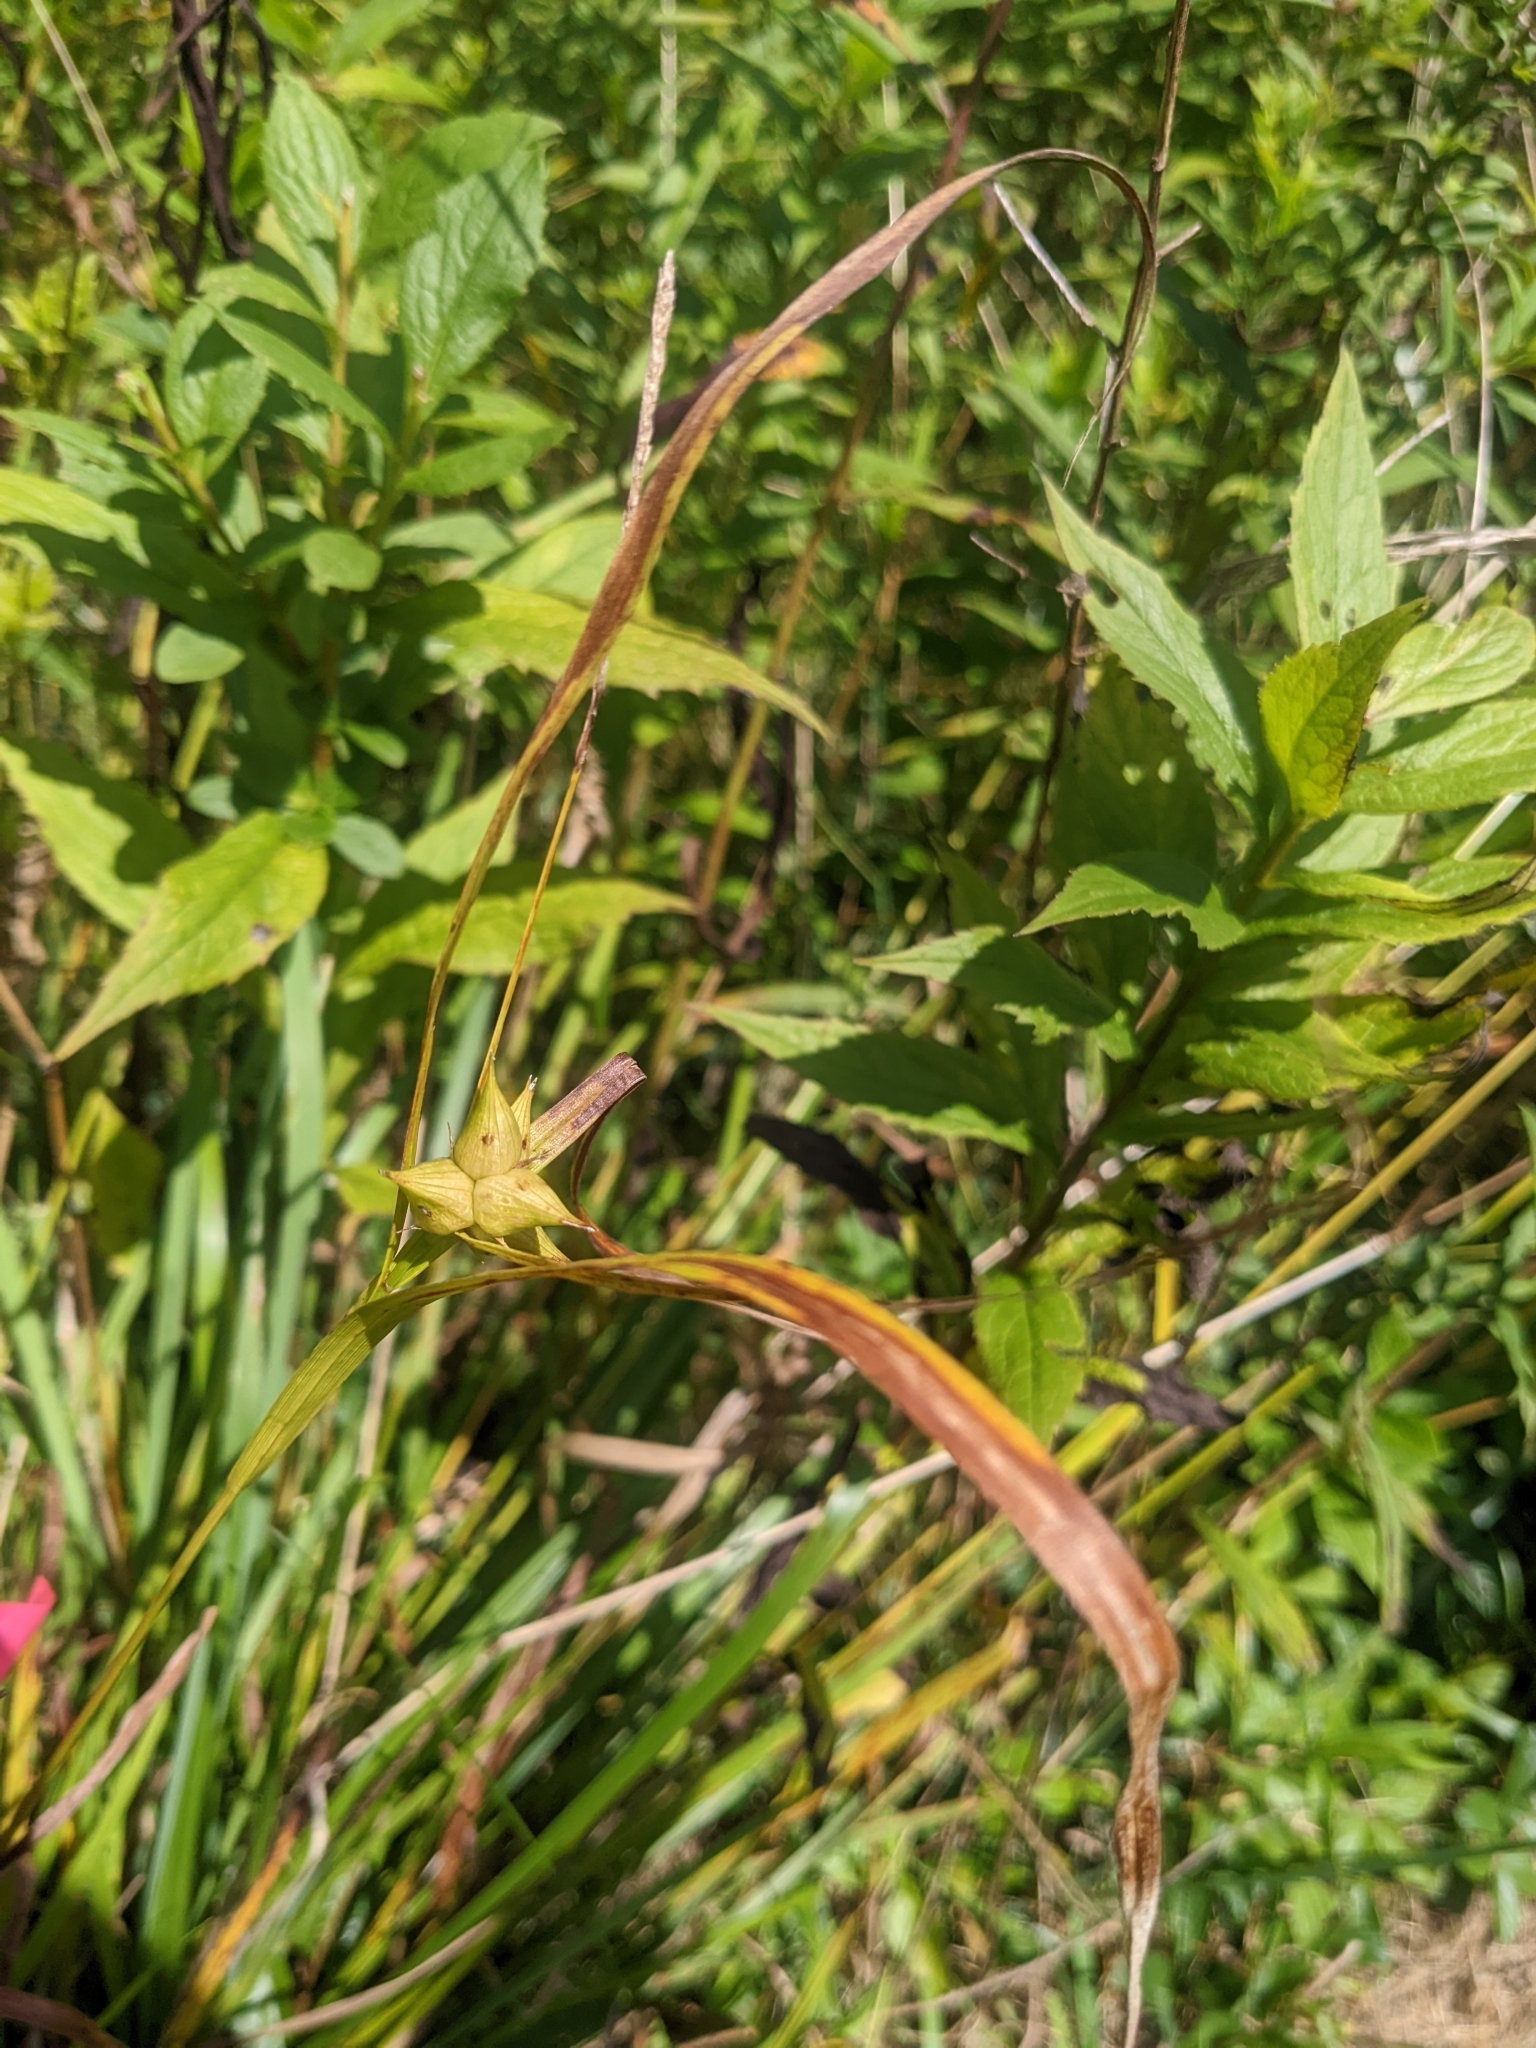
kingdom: Plantae
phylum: Tracheophyta
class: Liliopsida
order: Poales
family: Cyperaceae
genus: Carex
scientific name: Carex intumescens
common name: Greater bladder sedge
